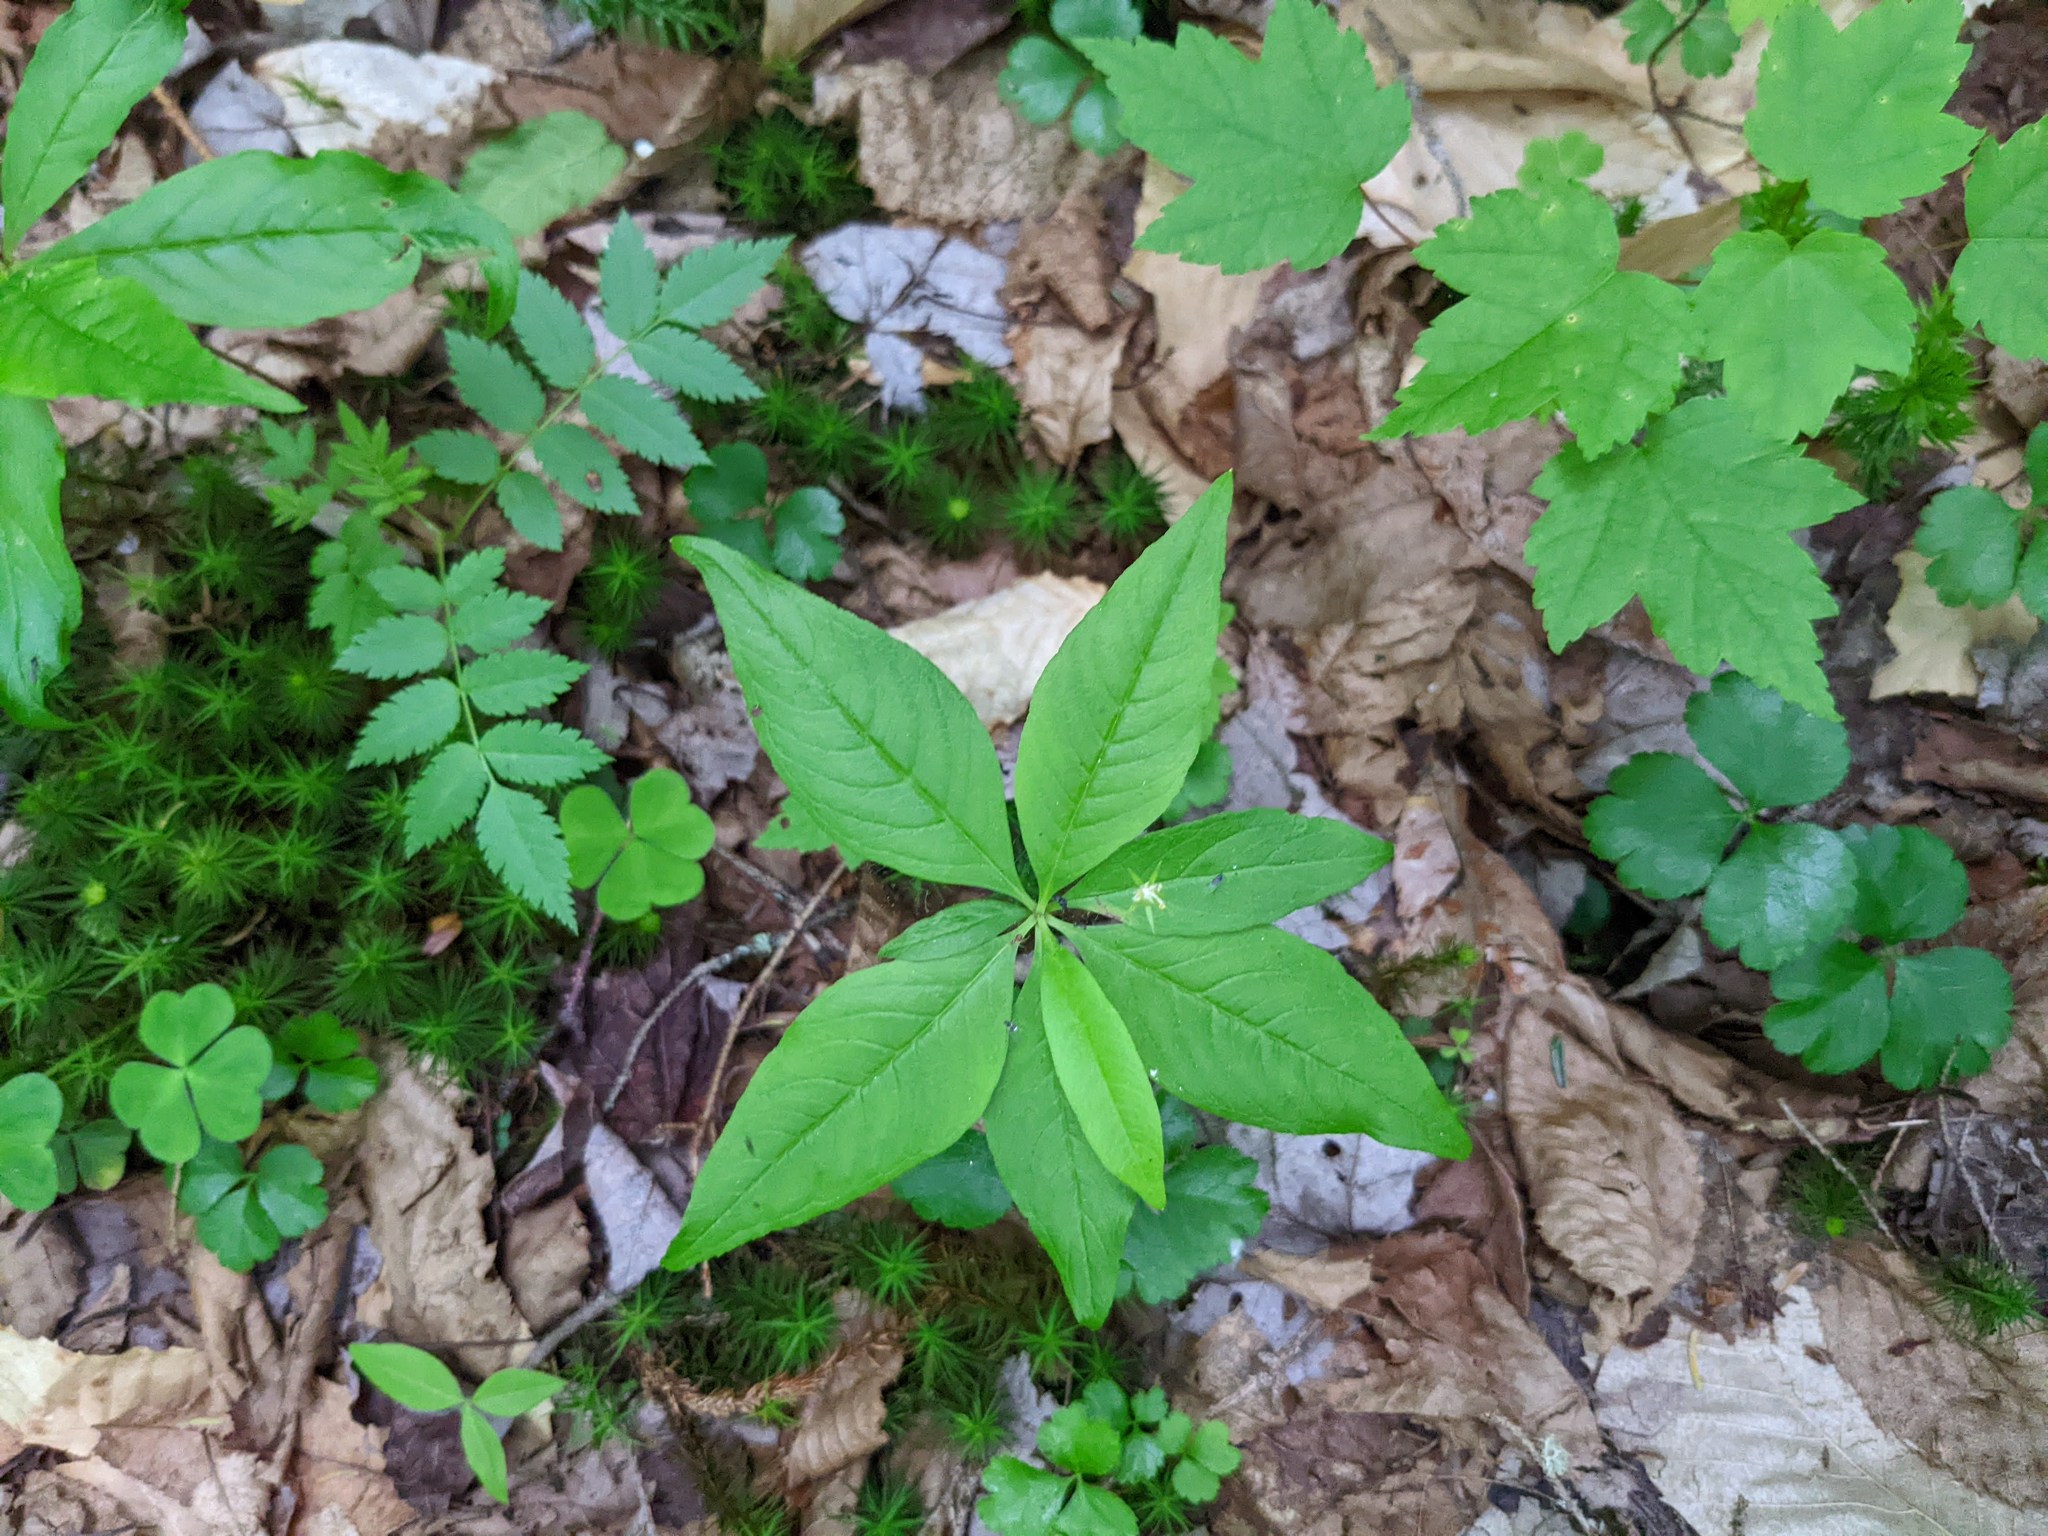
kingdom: Plantae
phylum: Tracheophyta
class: Magnoliopsida
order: Ericales
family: Primulaceae
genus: Lysimachia
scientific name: Lysimachia borealis
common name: American starflower
